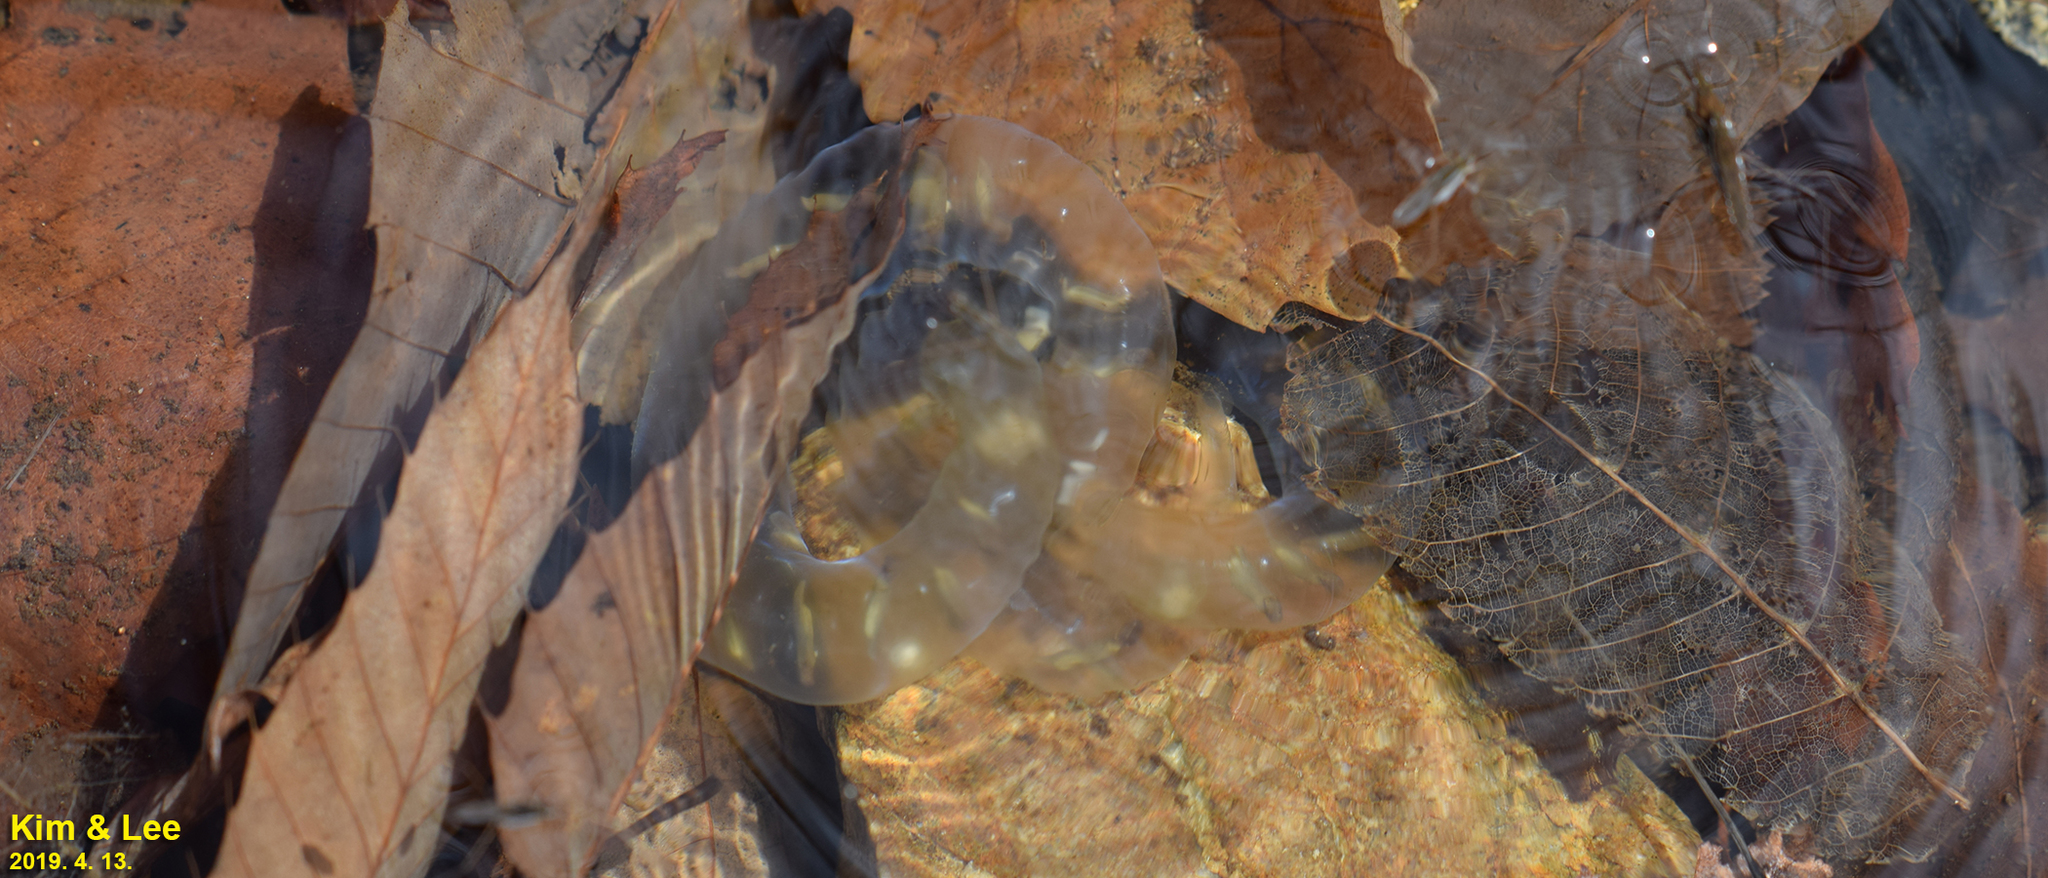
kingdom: Animalia
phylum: Chordata
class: Amphibia
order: Caudata
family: Hynobiidae
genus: Hynobius
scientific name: Hynobius leechii
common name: Gensan salamander
